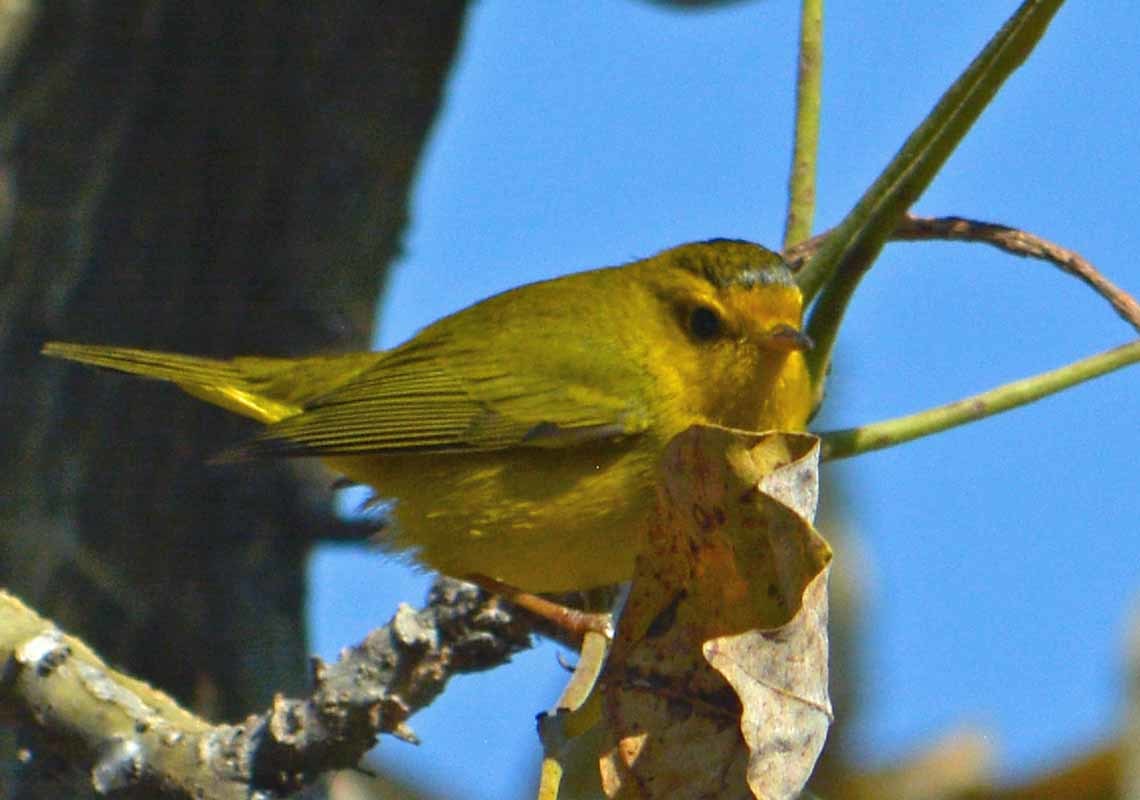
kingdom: Animalia
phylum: Chordata
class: Aves
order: Passeriformes
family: Parulidae
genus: Cardellina
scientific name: Cardellina pusilla
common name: Wilson's warbler
